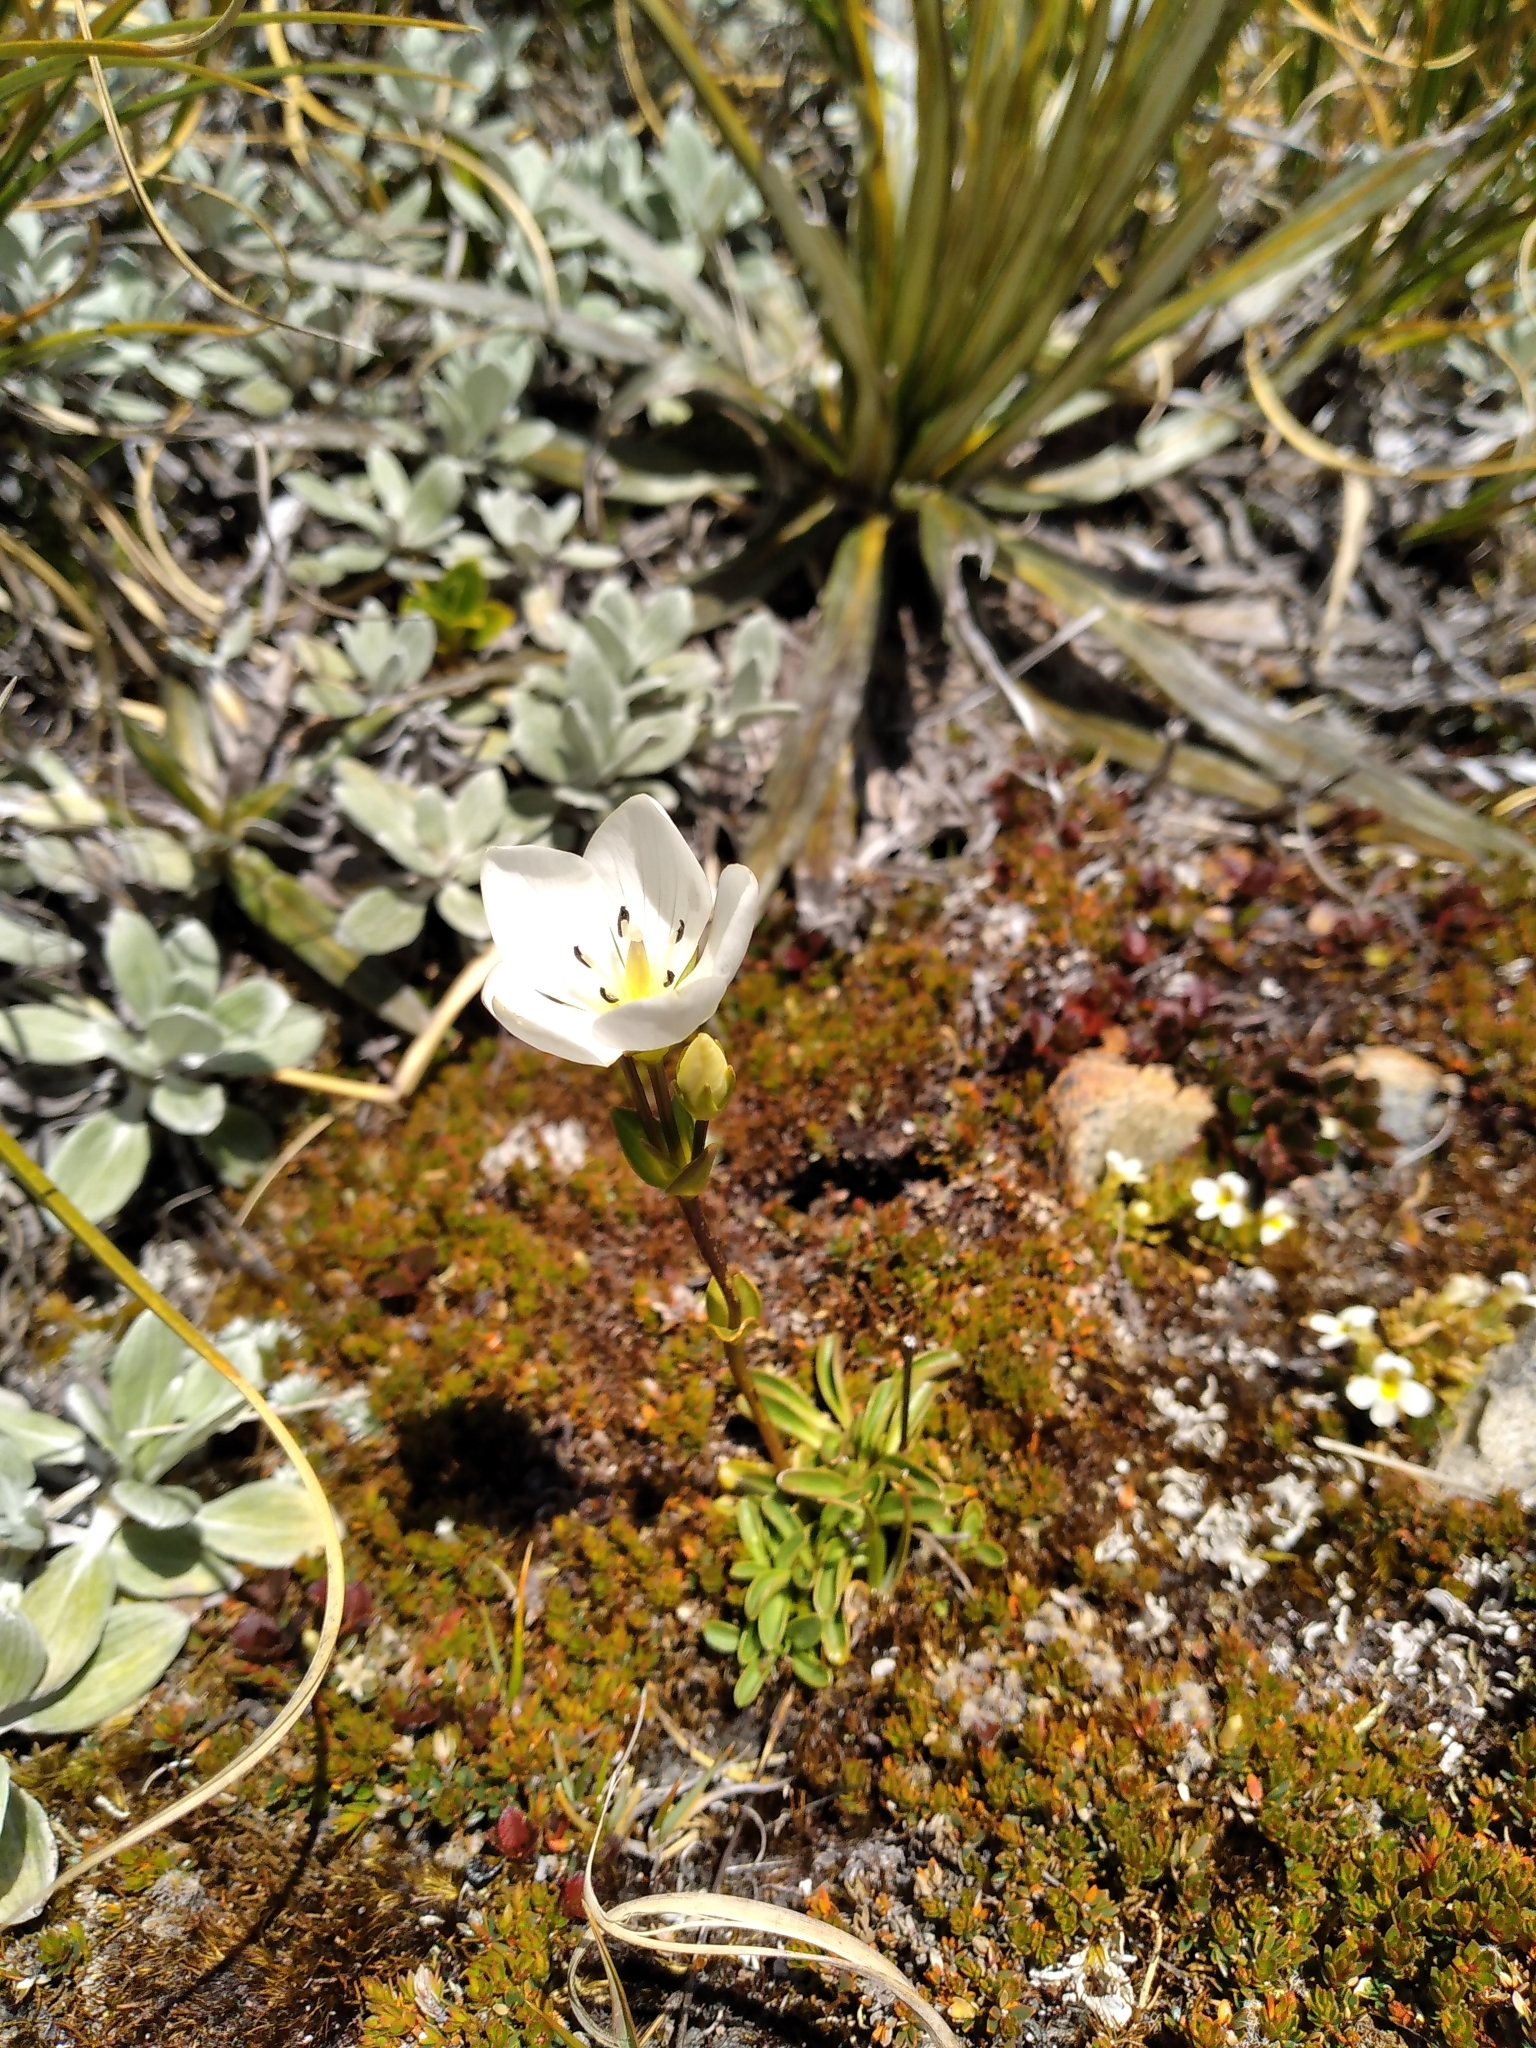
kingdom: Plantae
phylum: Tracheophyta
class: Magnoliopsida
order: Gentianales
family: Gentianaceae
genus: Gentianella
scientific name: Gentianella bellidifolia
